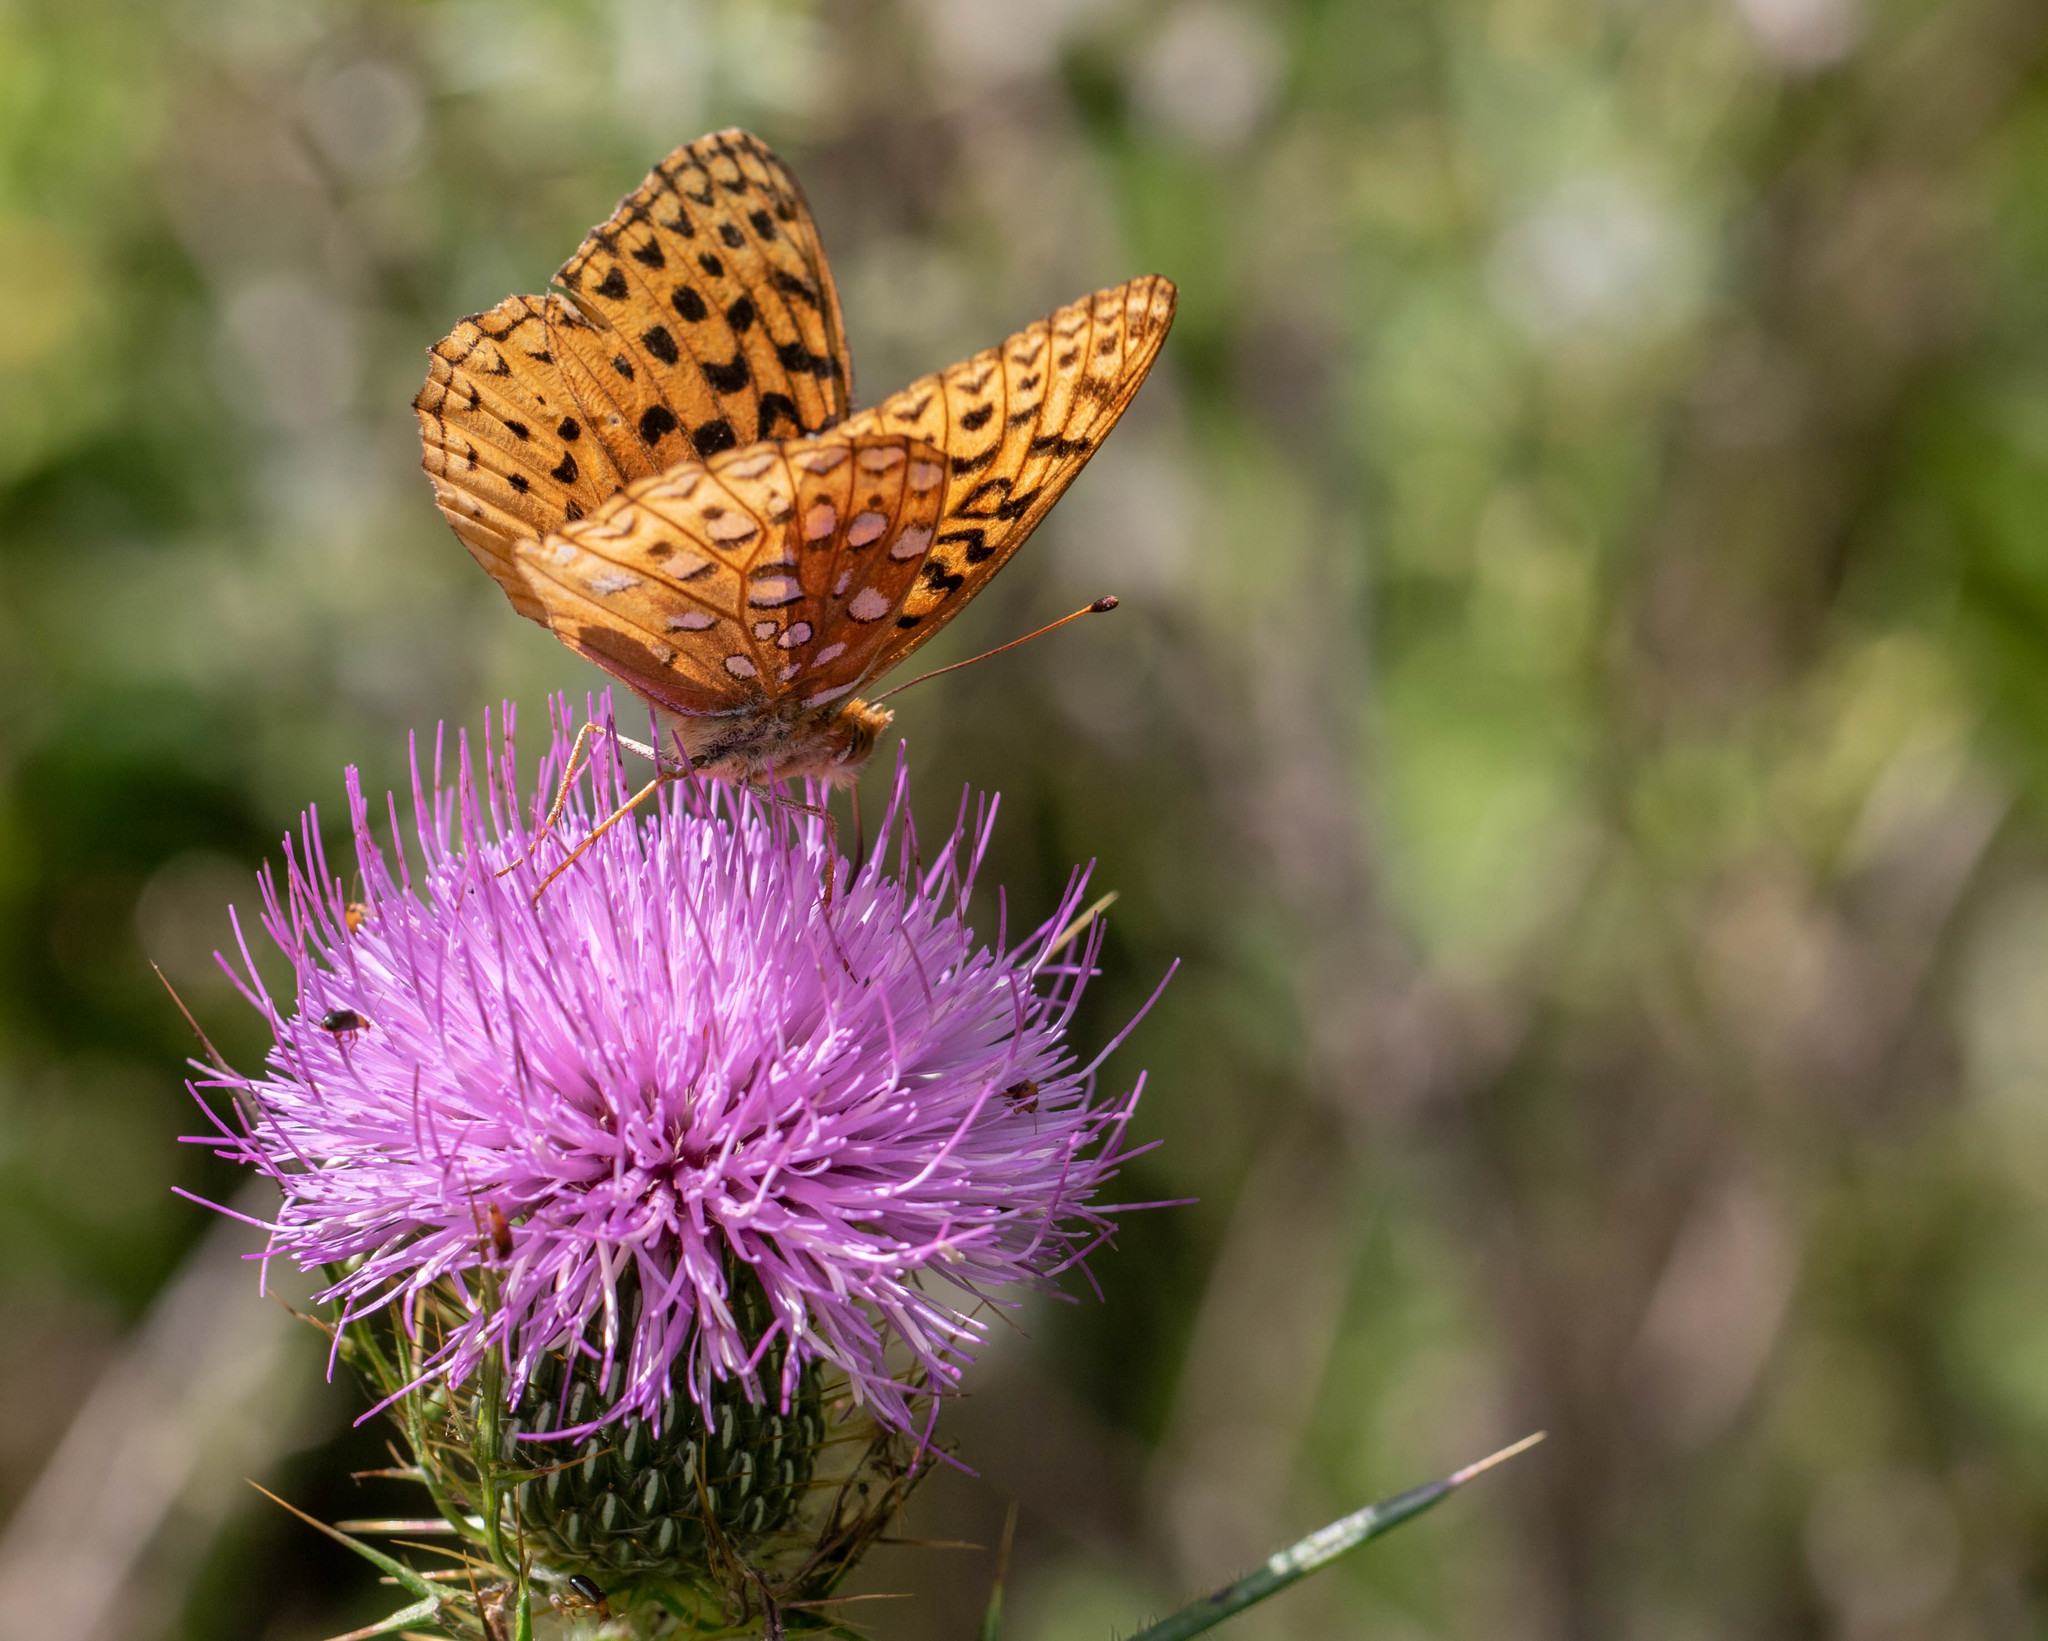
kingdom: Animalia
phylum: Arthropoda
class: Insecta
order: Lepidoptera
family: Nymphalidae
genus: Speyeria
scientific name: Speyeria aphrodite
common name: Aphrodite friitllary
